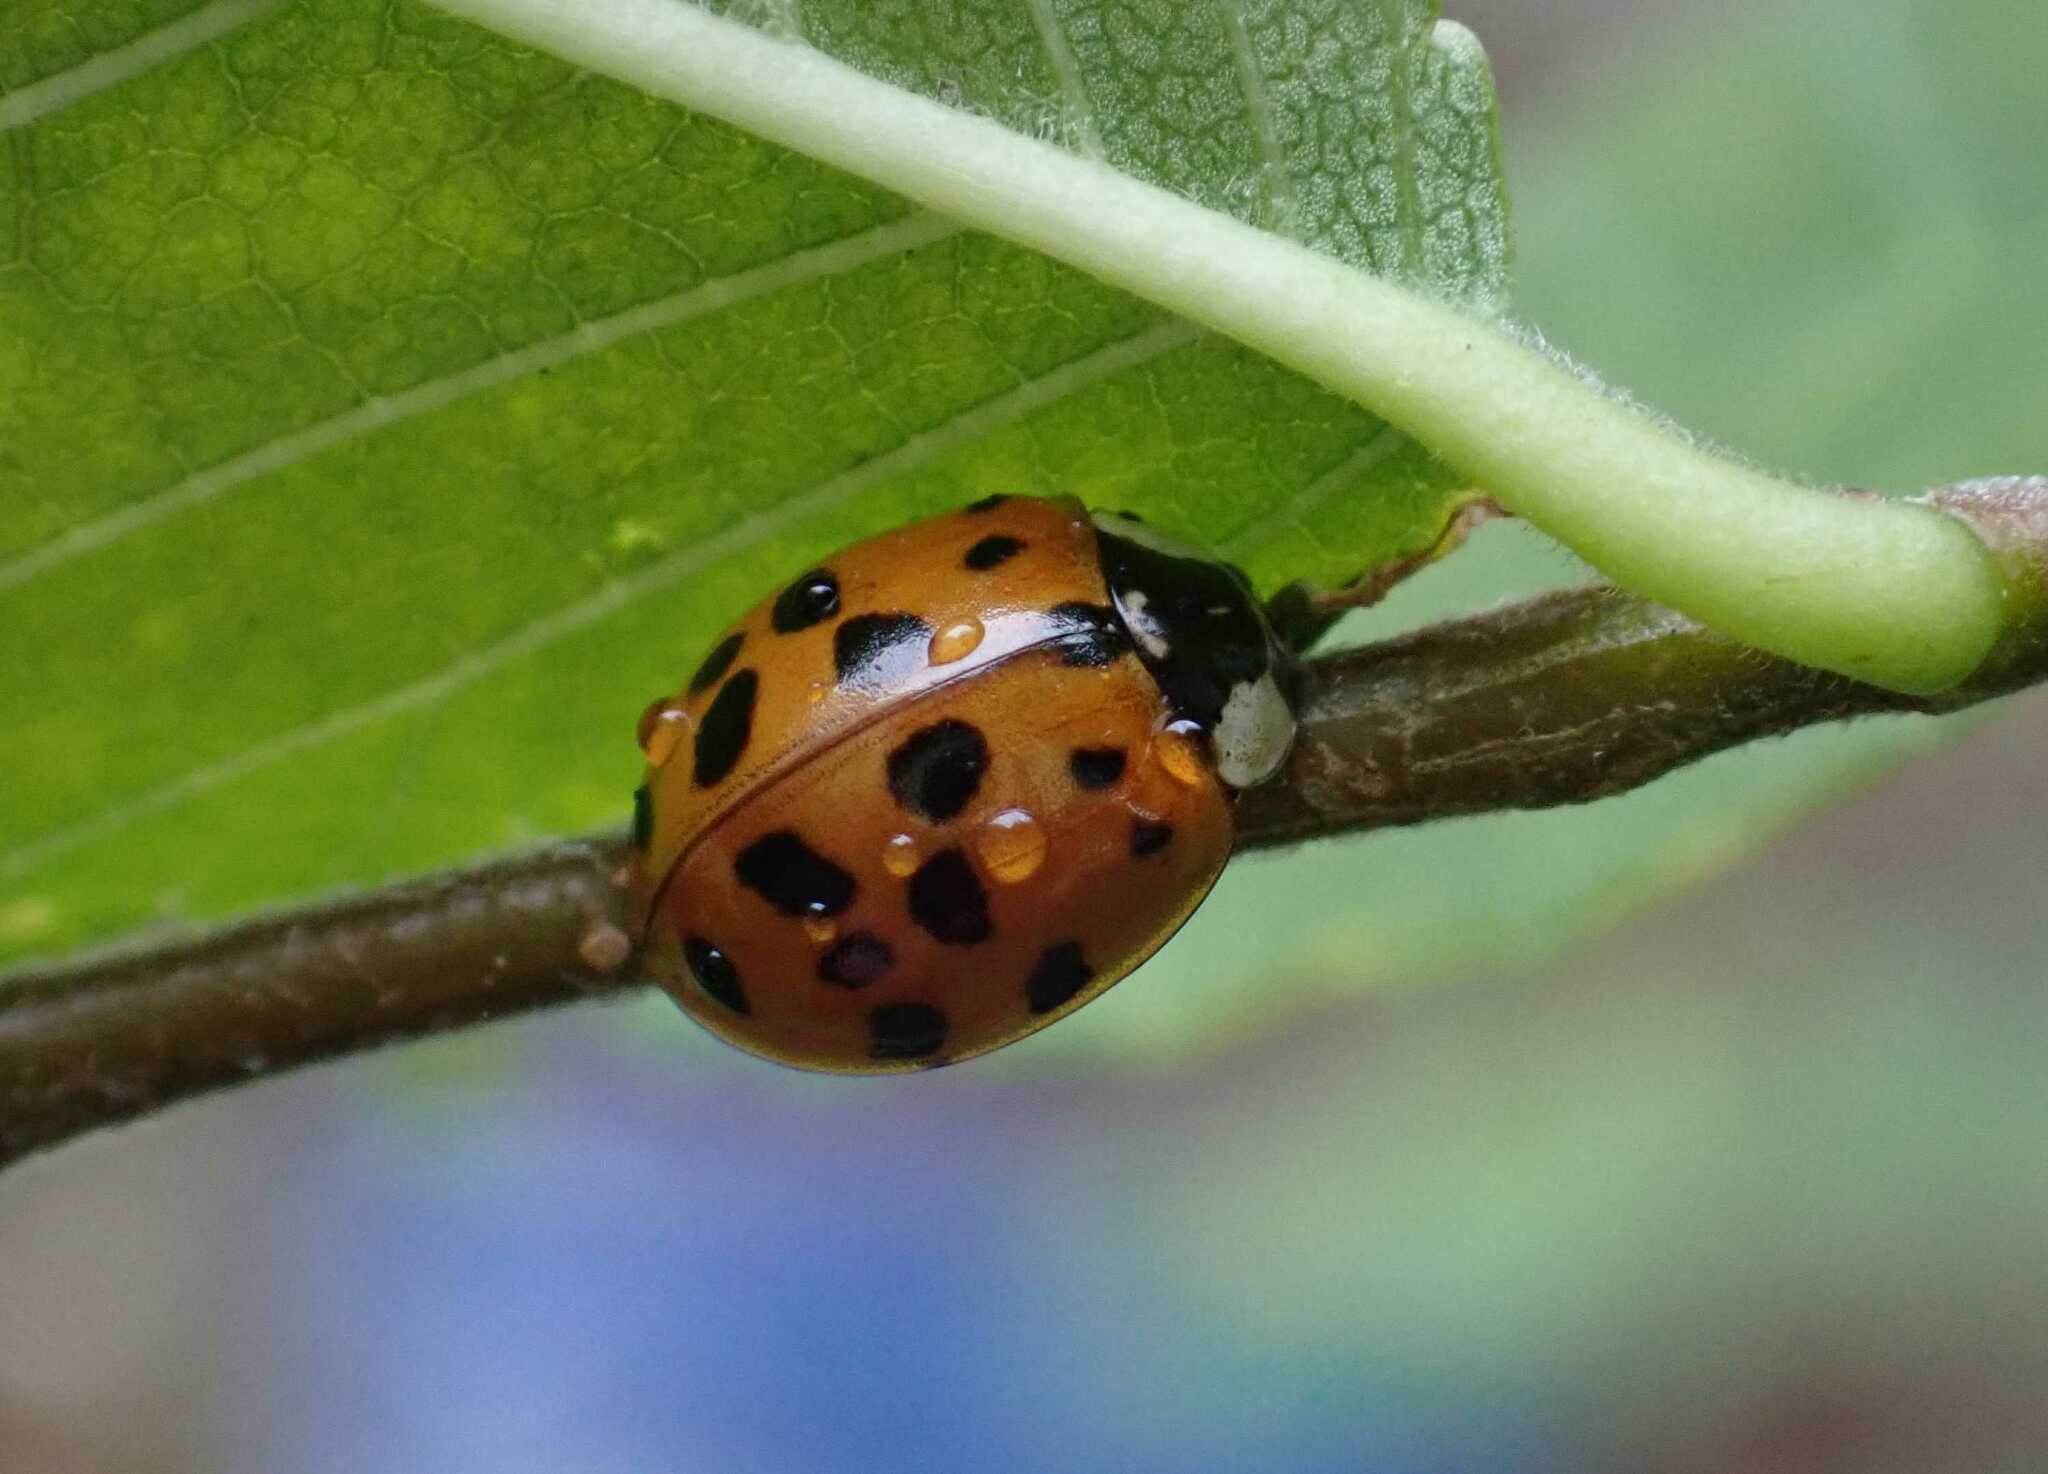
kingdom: Animalia
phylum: Arthropoda
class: Insecta
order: Coleoptera
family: Coccinellidae
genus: Harmonia
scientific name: Harmonia axyridis
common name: Harlequin ladybird
